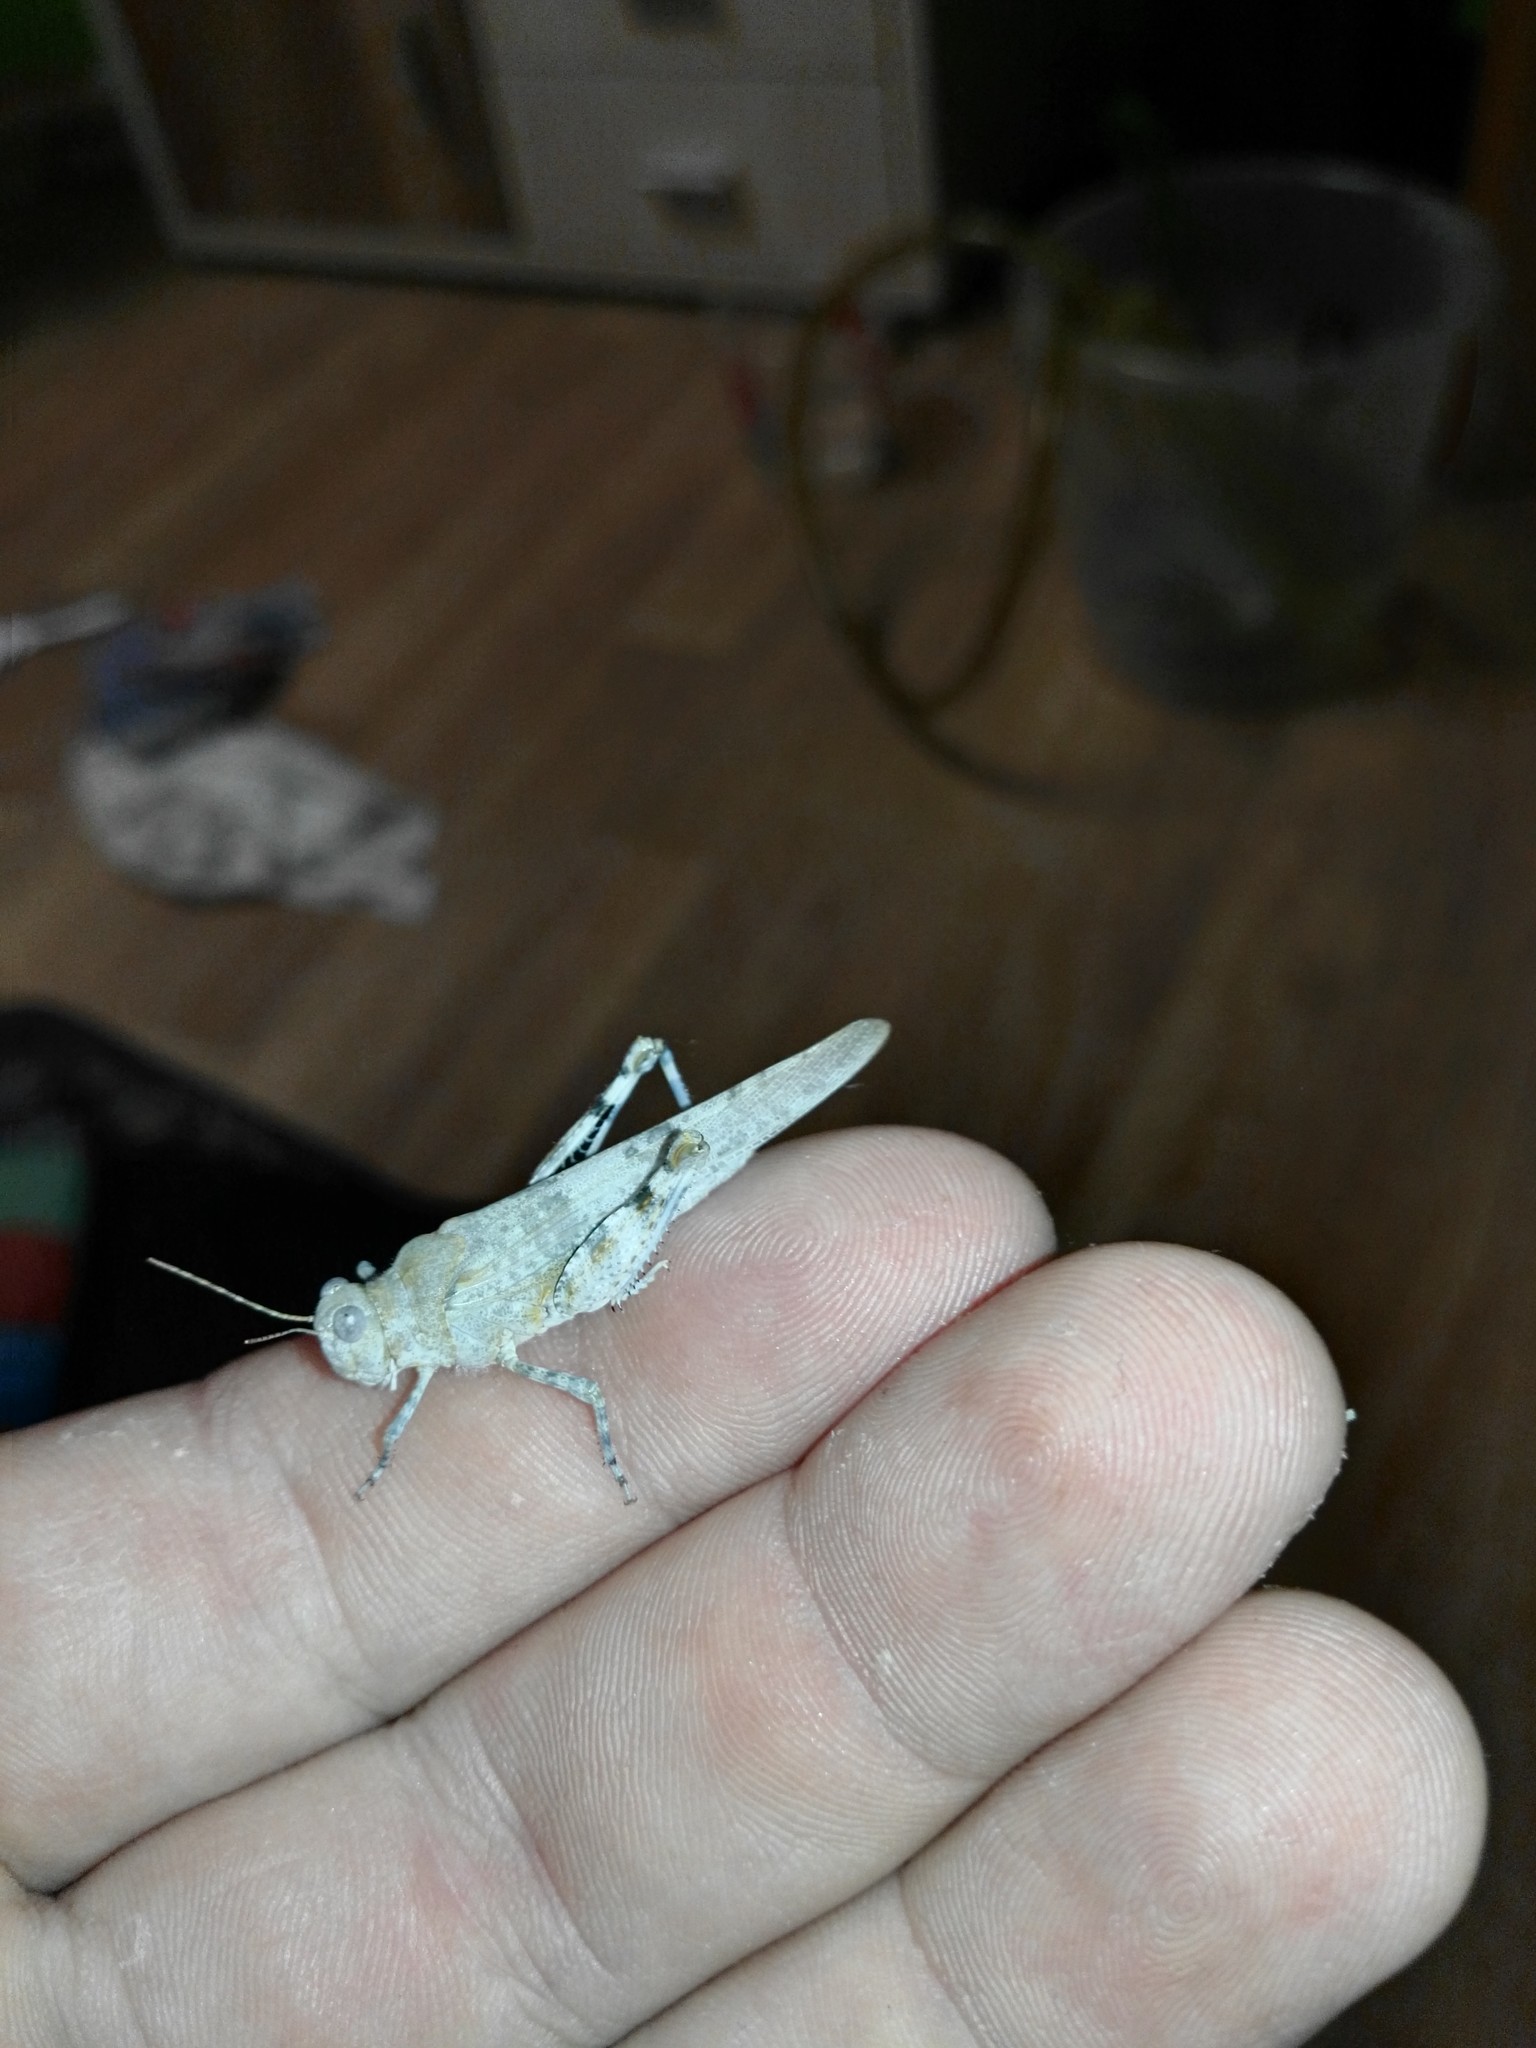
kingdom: Animalia
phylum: Arthropoda
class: Insecta
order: Orthoptera
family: Acrididae
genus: Sphingonotus
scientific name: Sphingonotus caerulans
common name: Blue-winged locust
